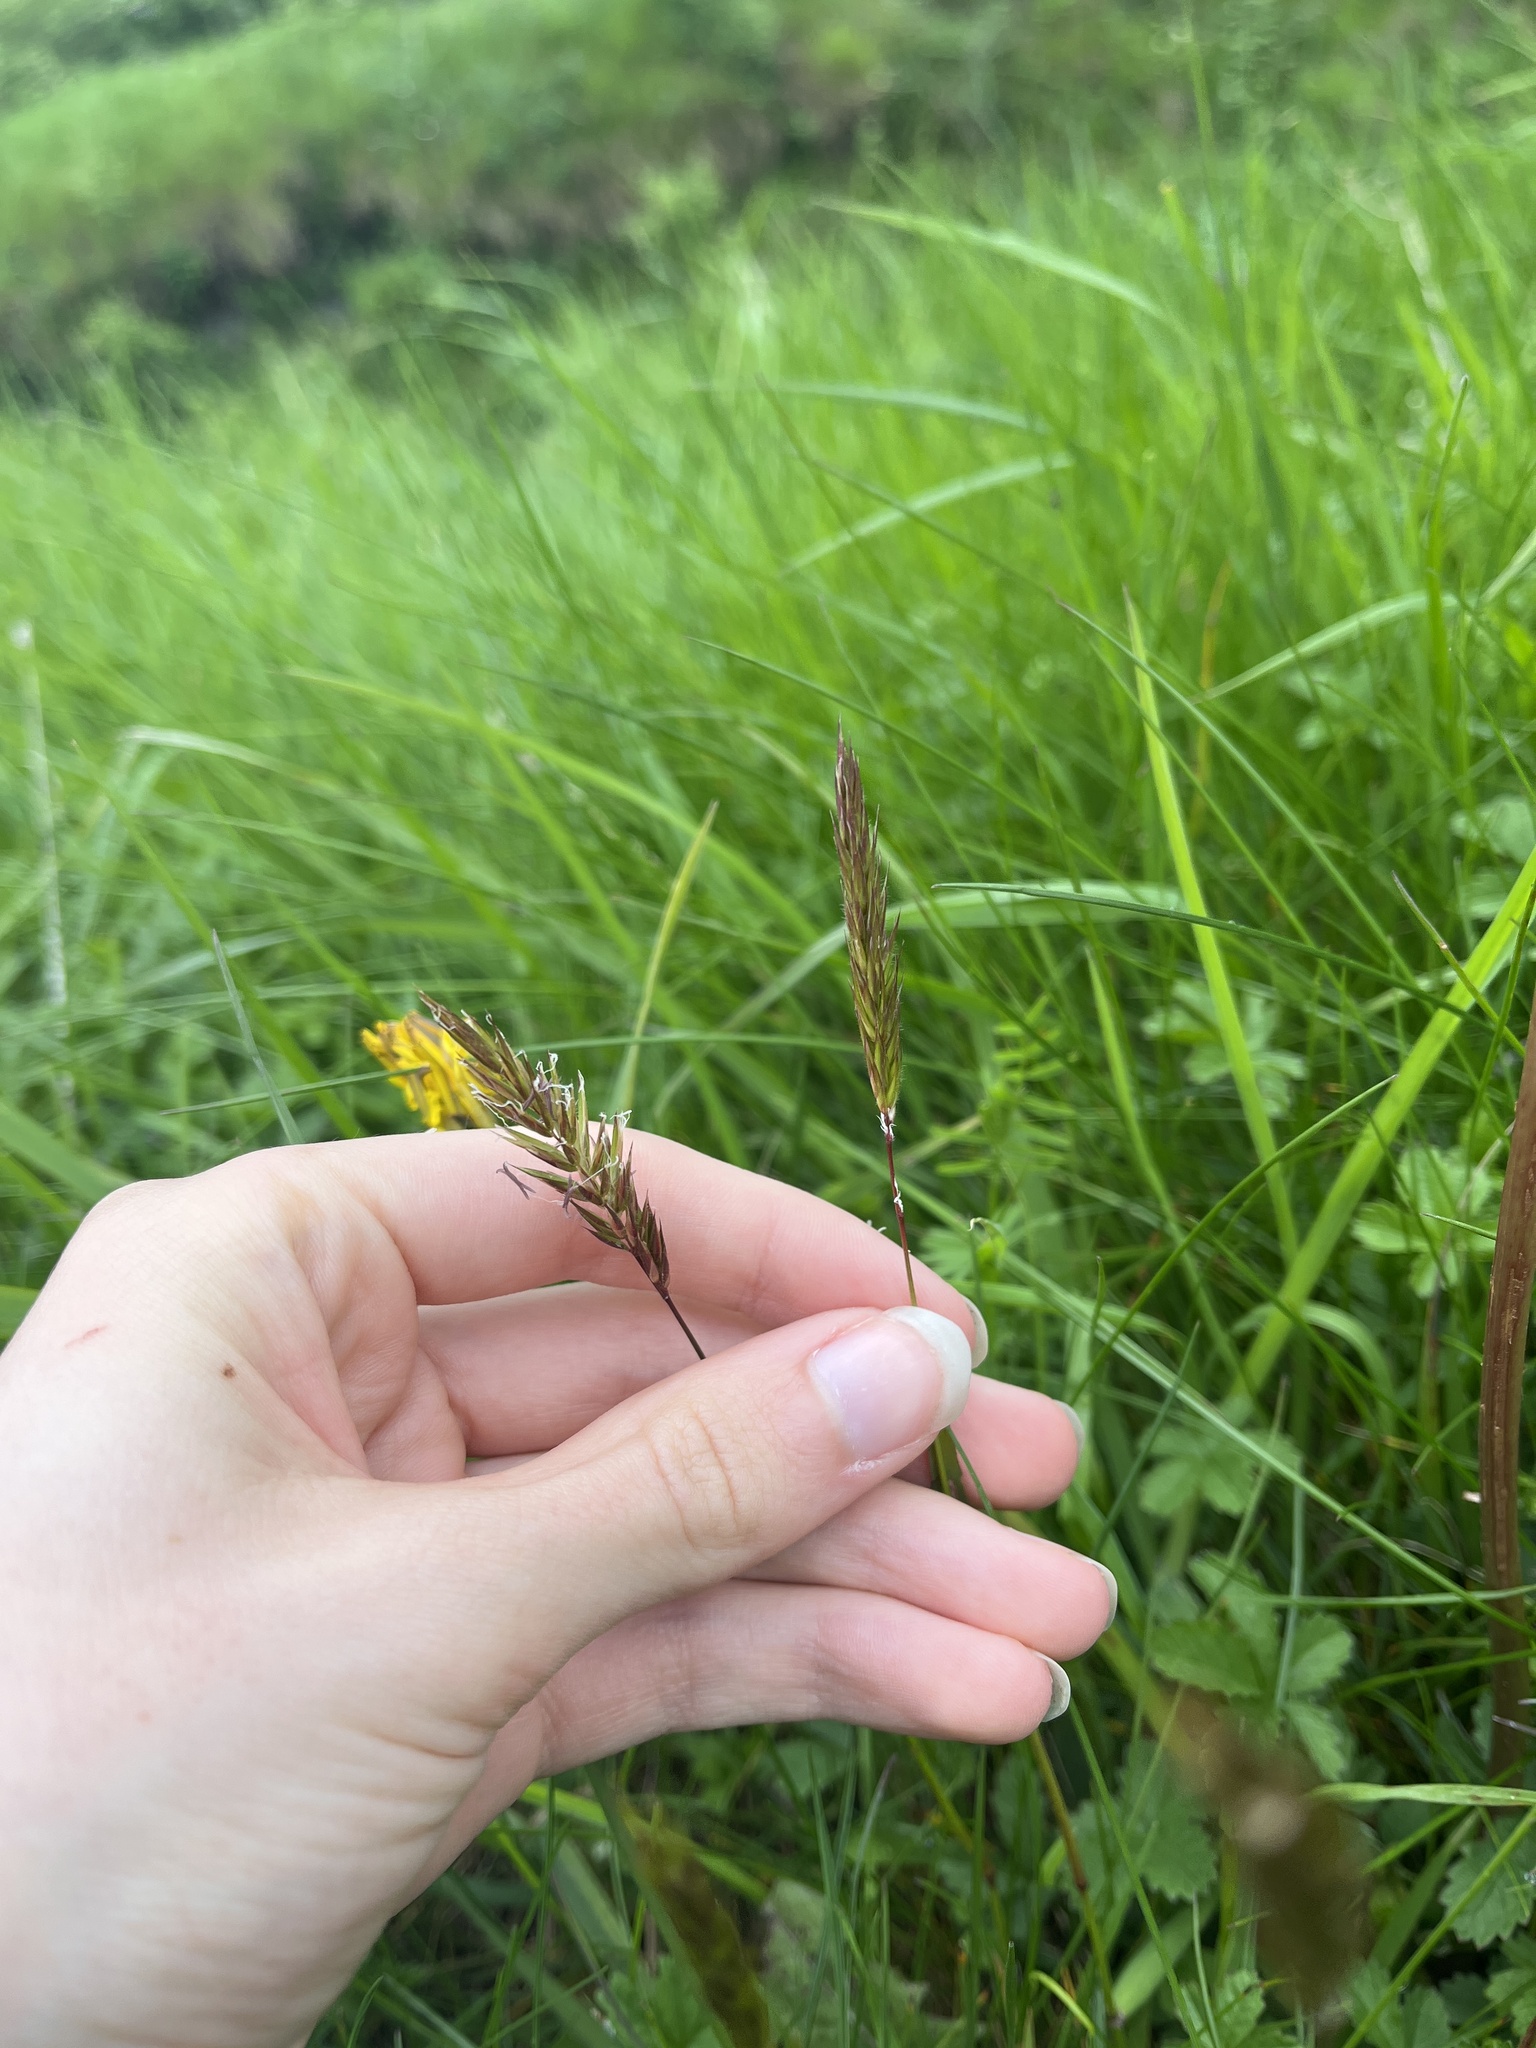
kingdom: Plantae
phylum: Tracheophyta
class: Liliopsida
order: Poales
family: Poaceae
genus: Anthoxanthum
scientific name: Anthoxanthum odoratum
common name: Sweet vernalgrass
